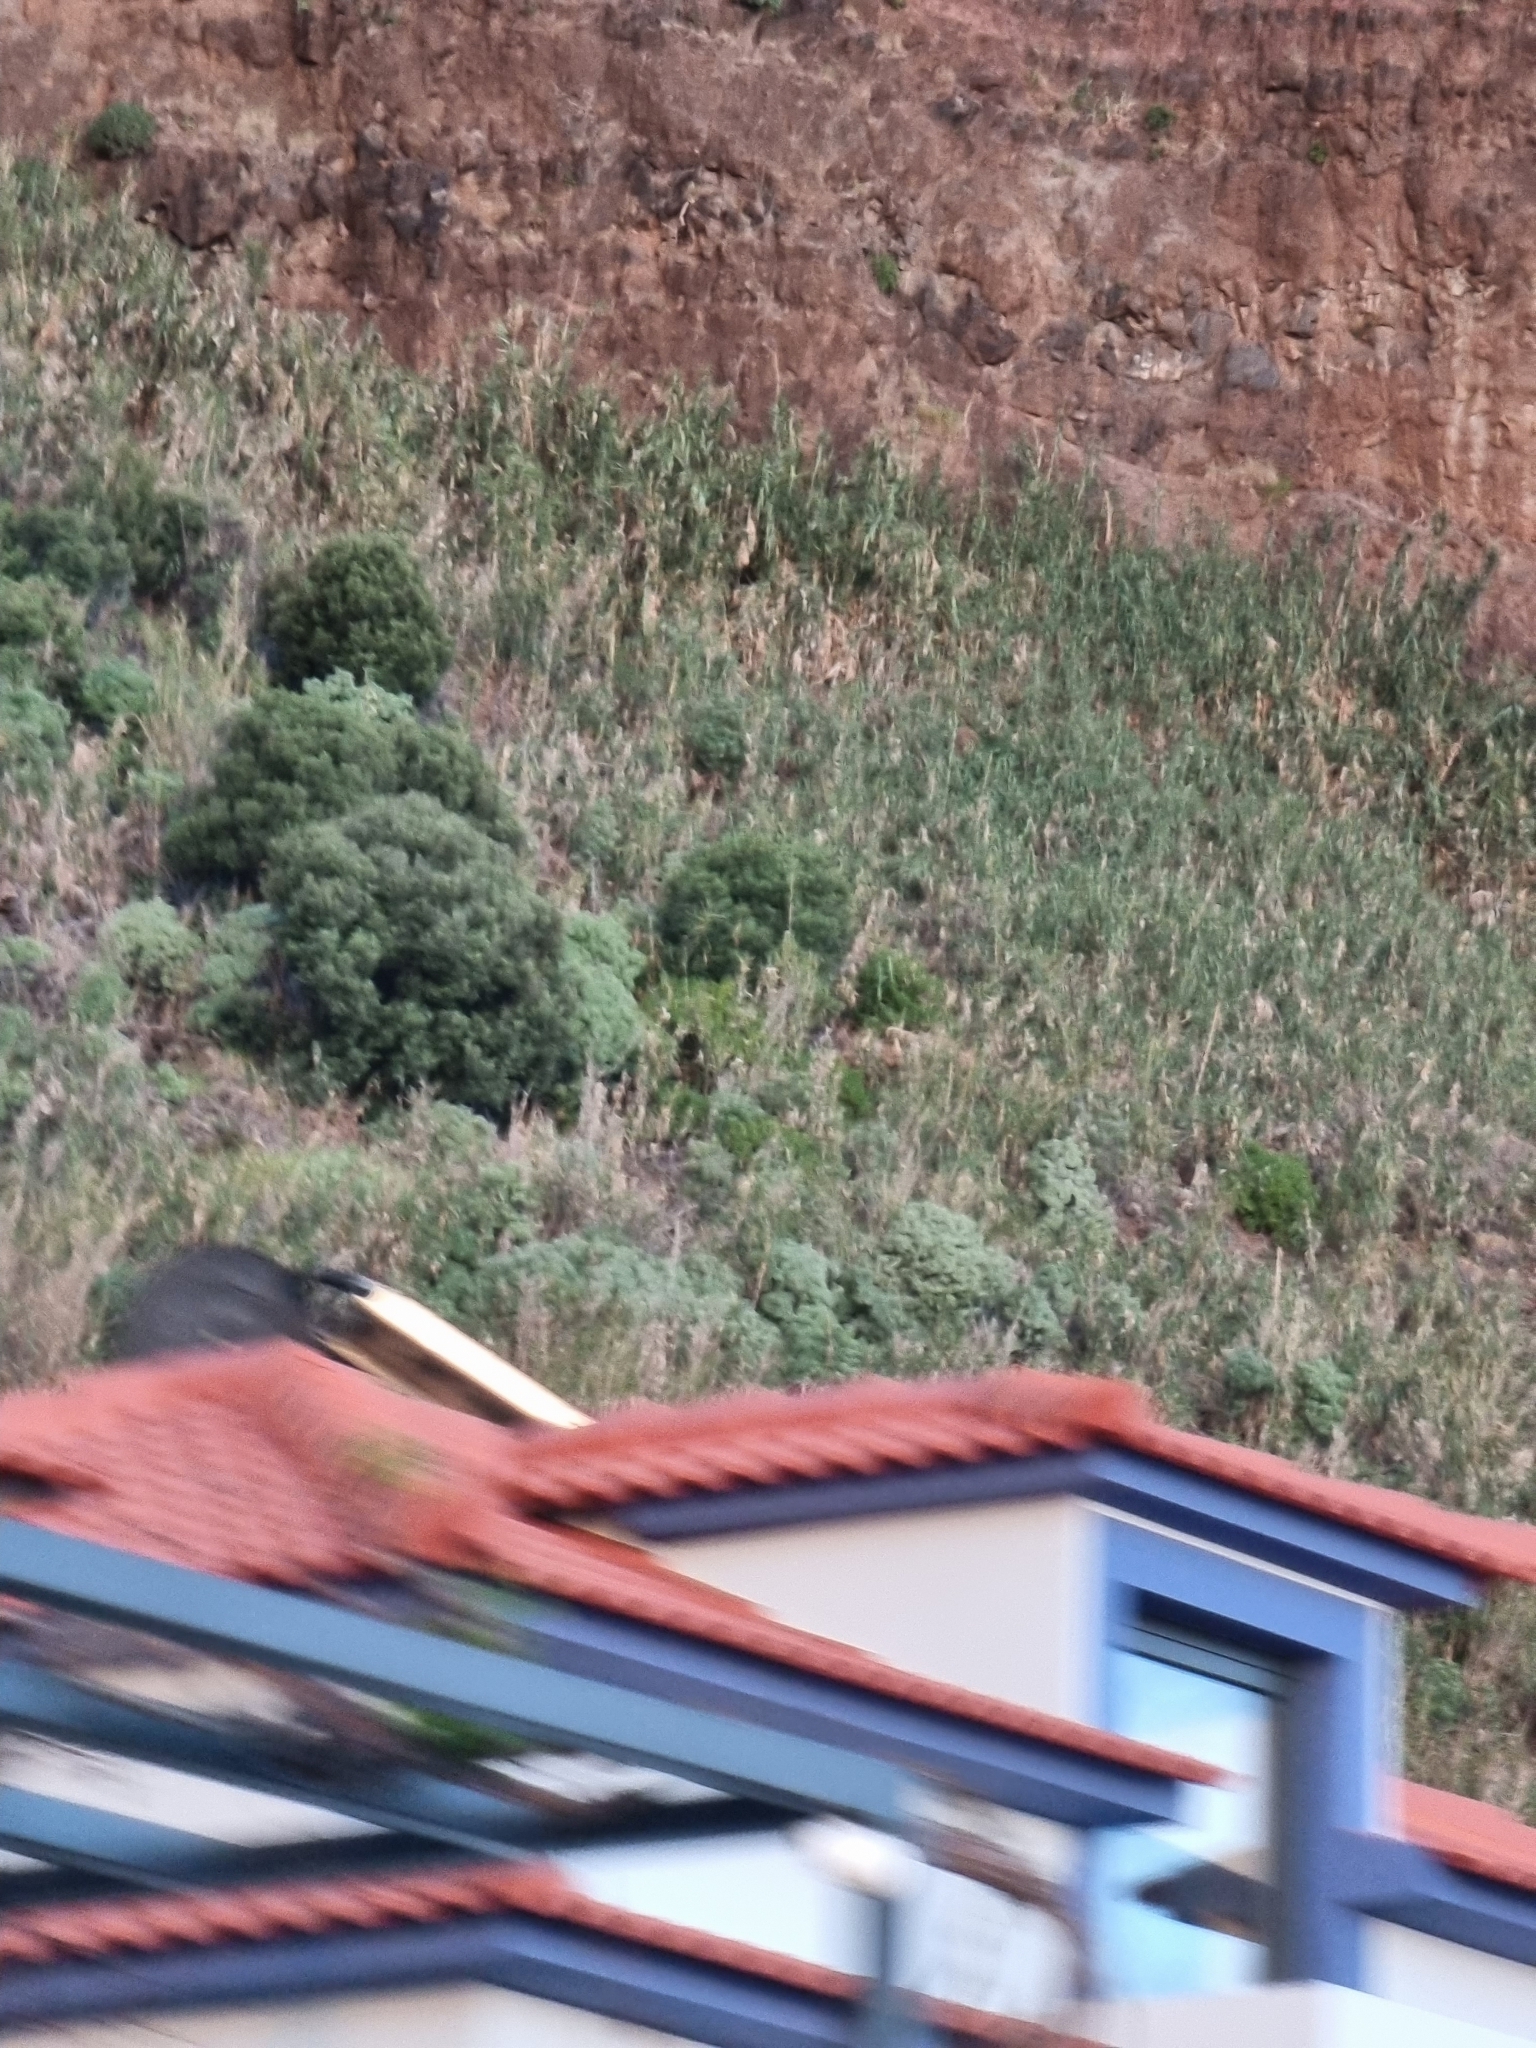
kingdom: Plantae
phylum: Tracheophyta
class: Magnoliopsida
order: Lamiales
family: Oleaceae
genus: Olea
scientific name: Olea europaea
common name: Olive
